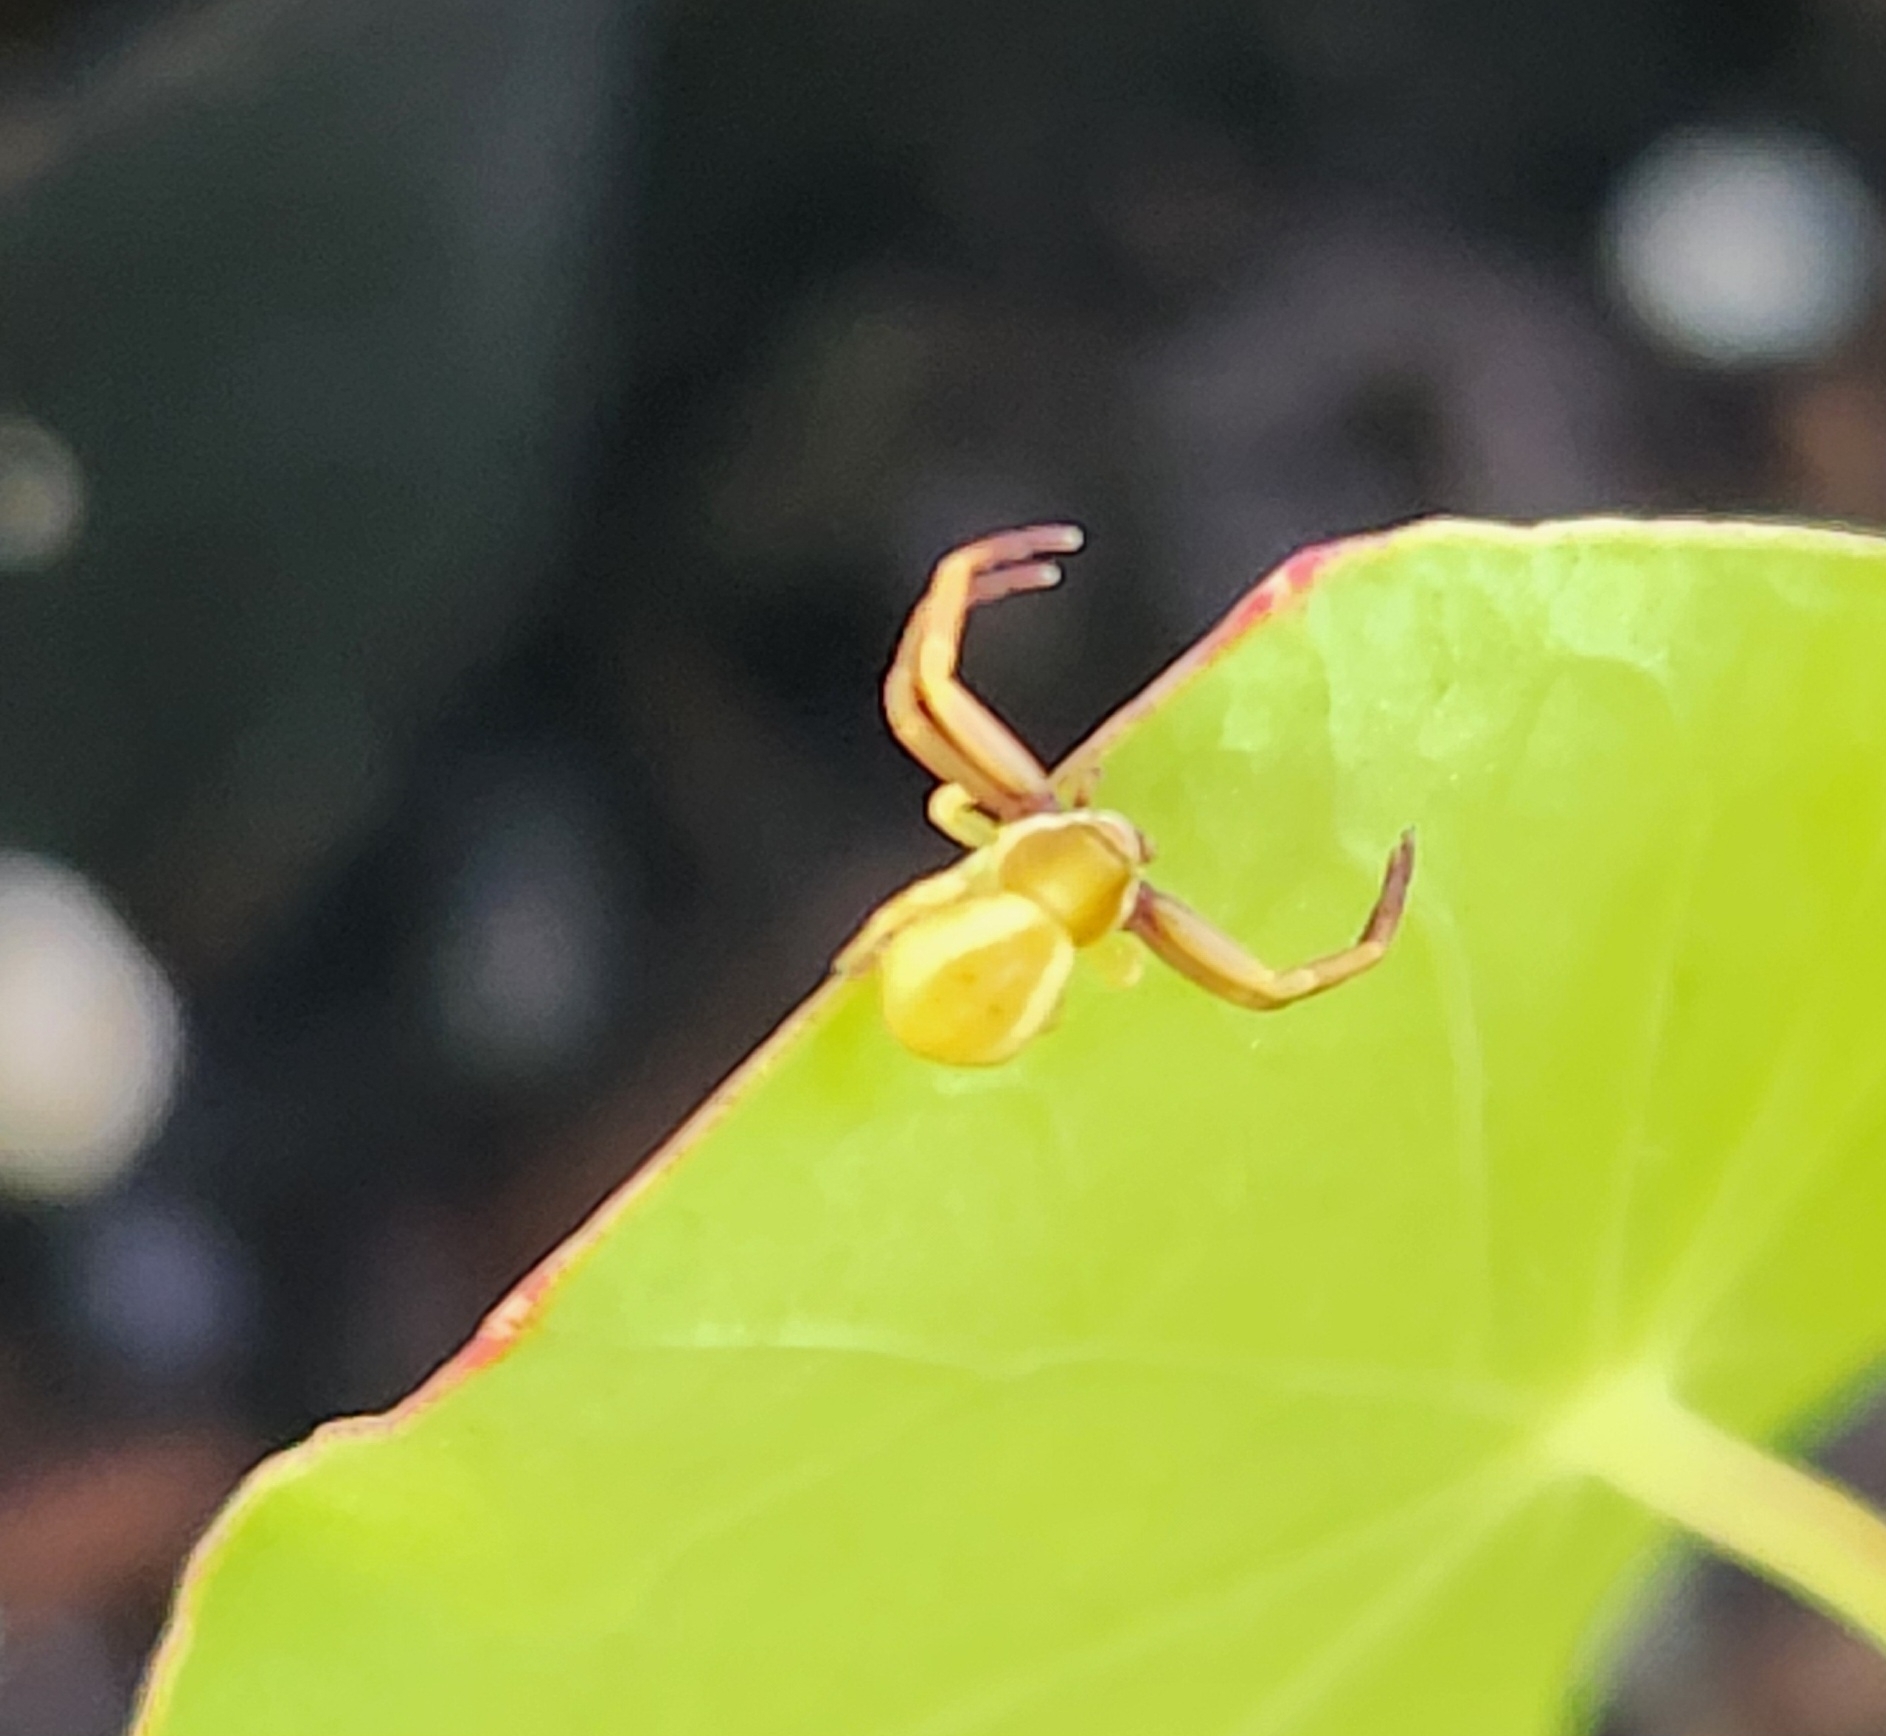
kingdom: Animalia
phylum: Arthropoda
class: Arachnida
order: Araneae
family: Thomisidae
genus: Misumenoides
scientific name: Misumenoides formosipes
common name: White-banded crab spider
